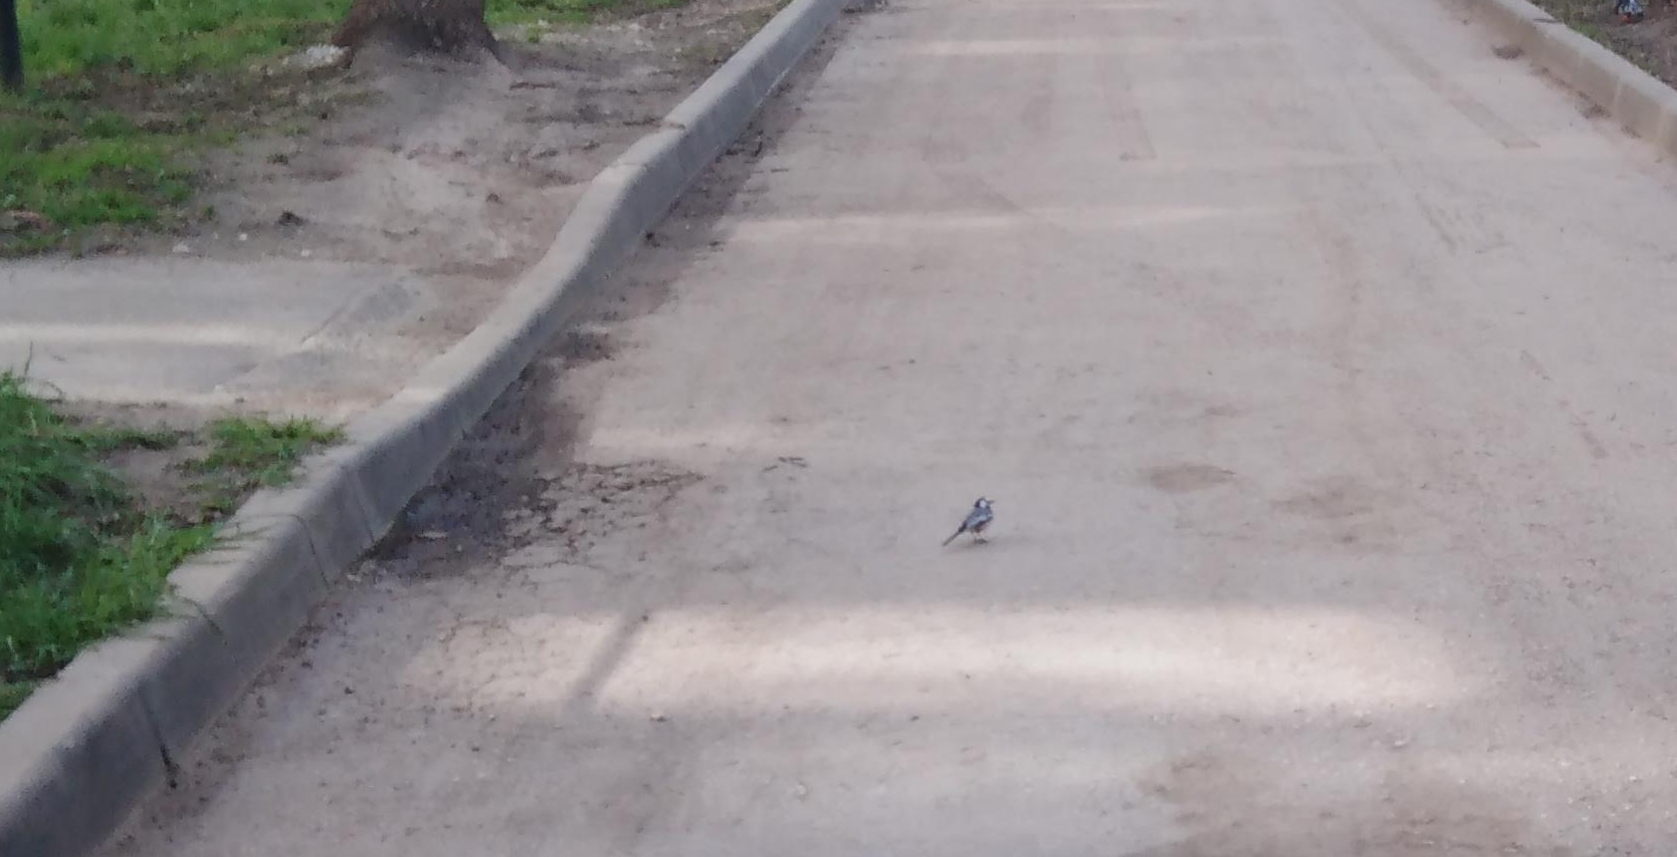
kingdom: Animalia
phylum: Chordata
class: Aves
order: Passeriformes
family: Motacillidae
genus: Motacilla
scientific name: Motacilla alba
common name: White wagtail
